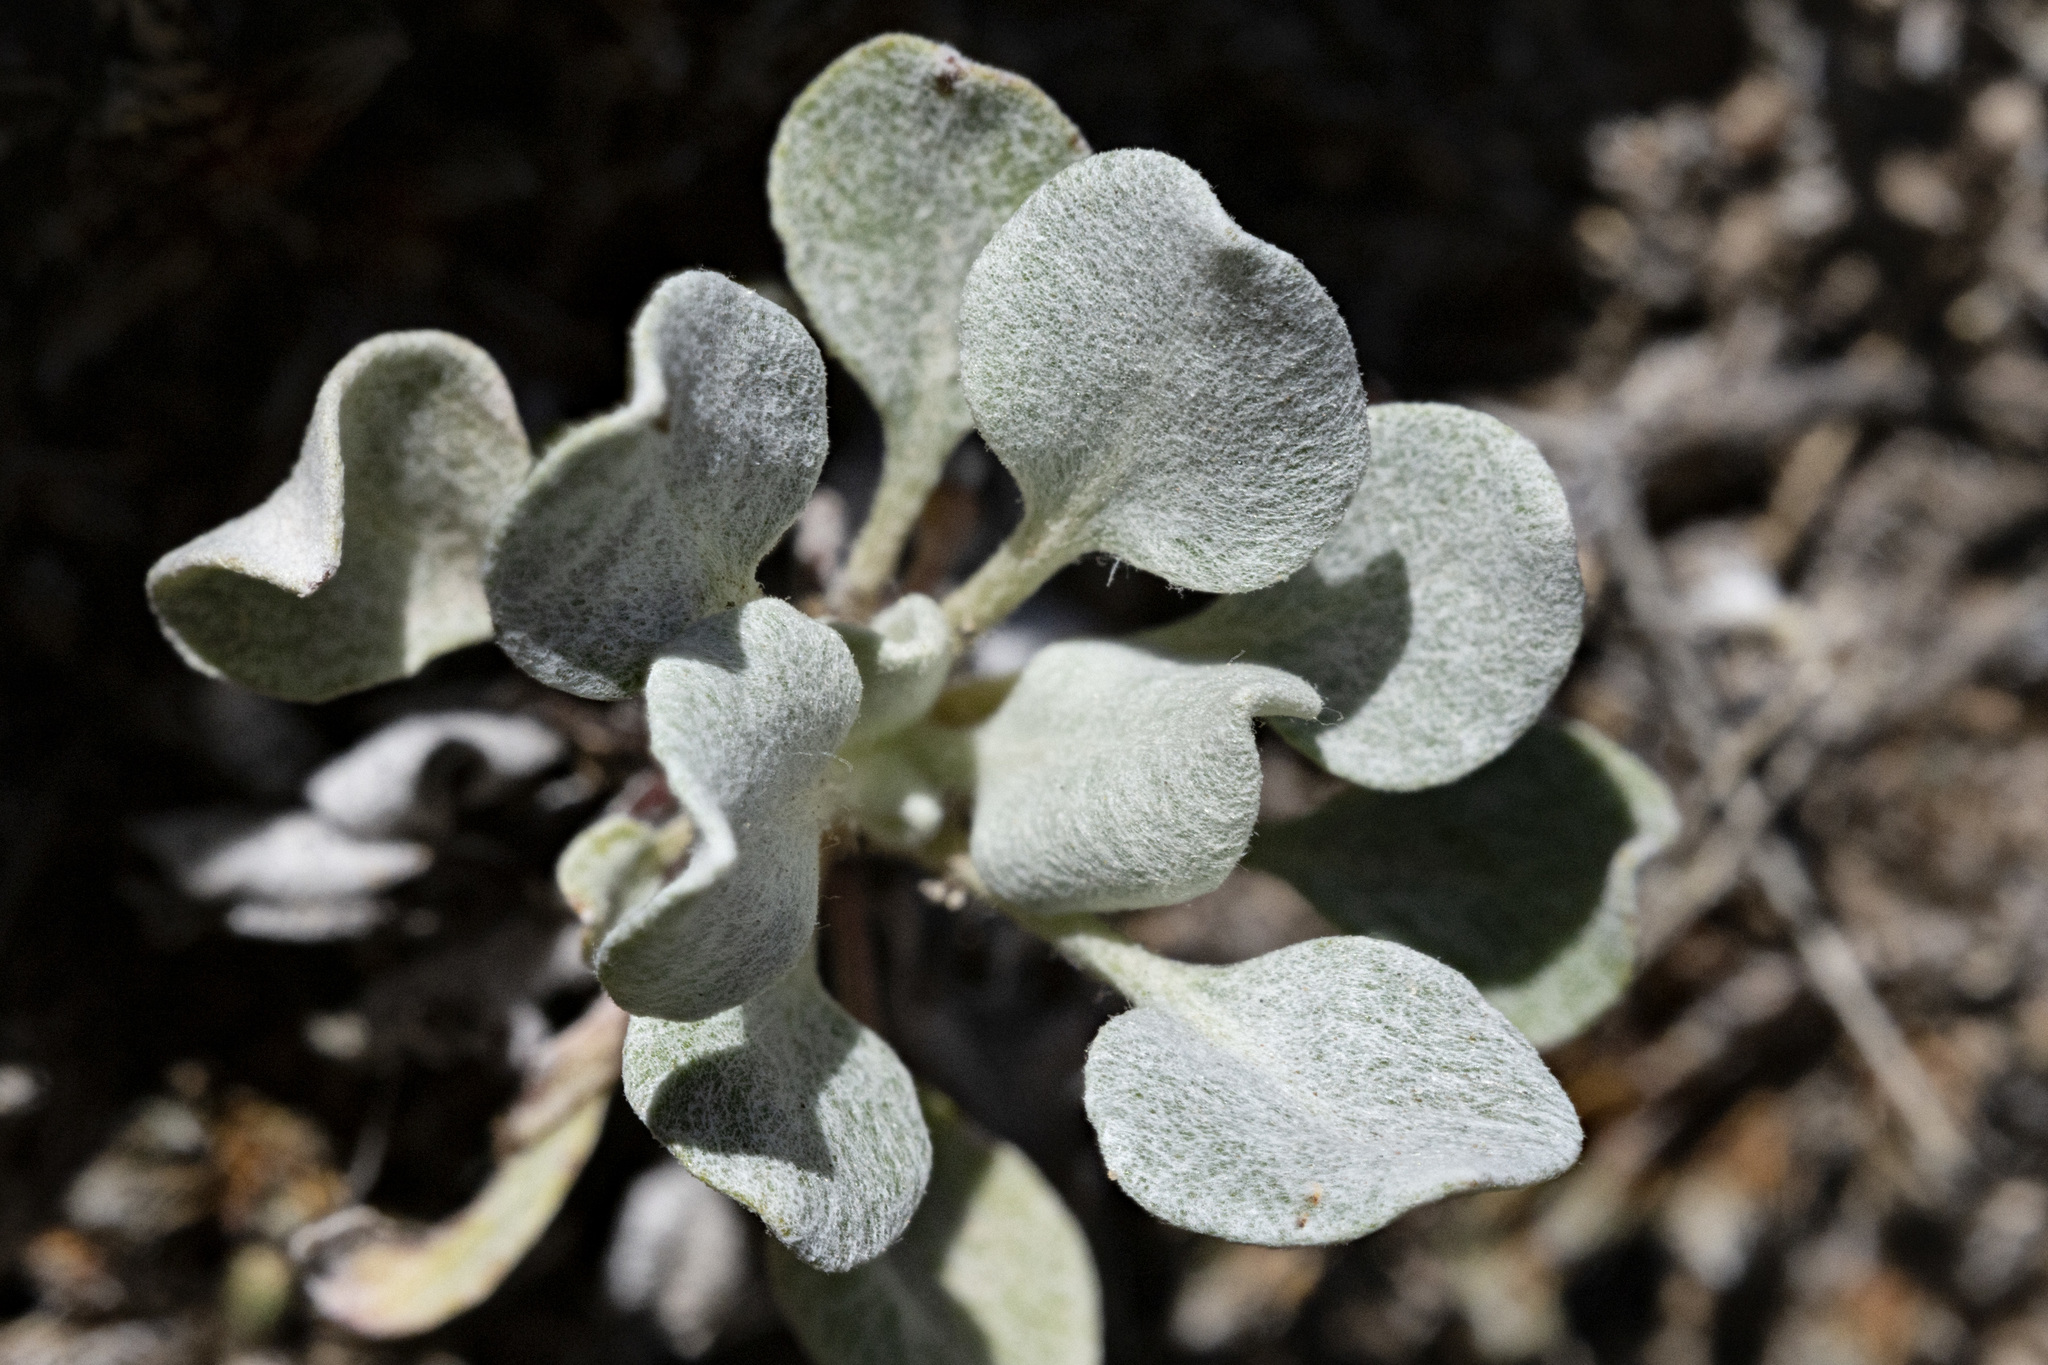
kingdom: Plantae
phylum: Tracheophyta
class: Magnoliopsida
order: Caryophyllales
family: Polygonaceae
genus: Eriogonum
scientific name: Eriogonum tenellum
